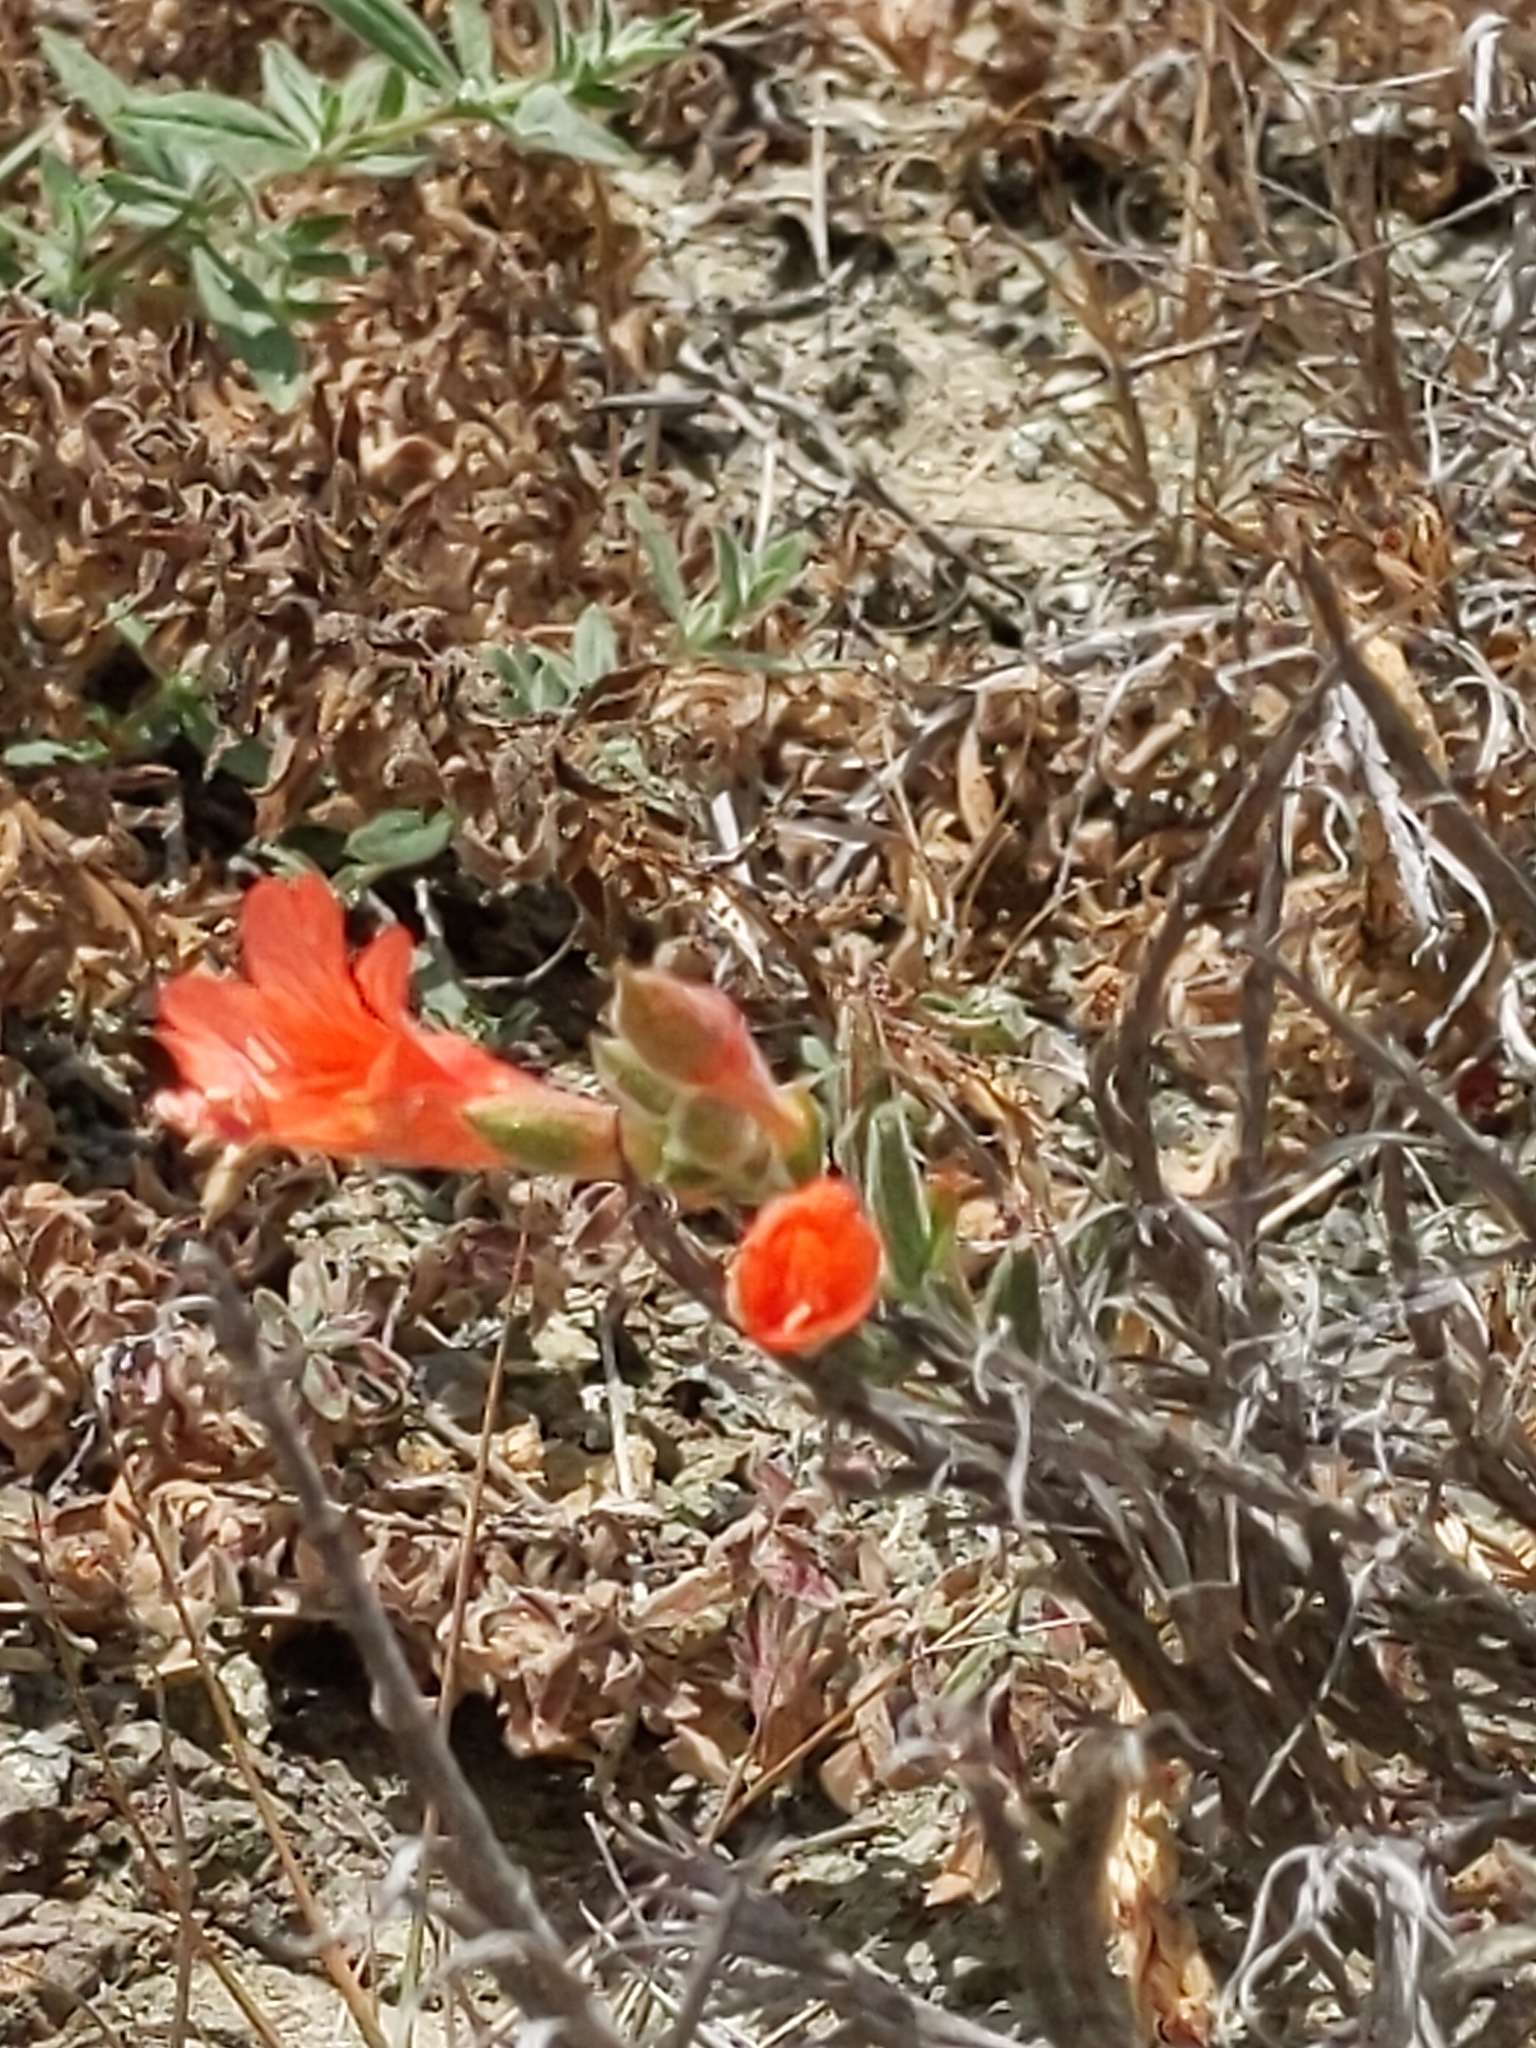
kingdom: Plantae
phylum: Tracheophyta
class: Magnoliopsida
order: Myrtales
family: Onagraceae
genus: Epilobium
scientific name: Epilobium canum
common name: California-fuchsia
